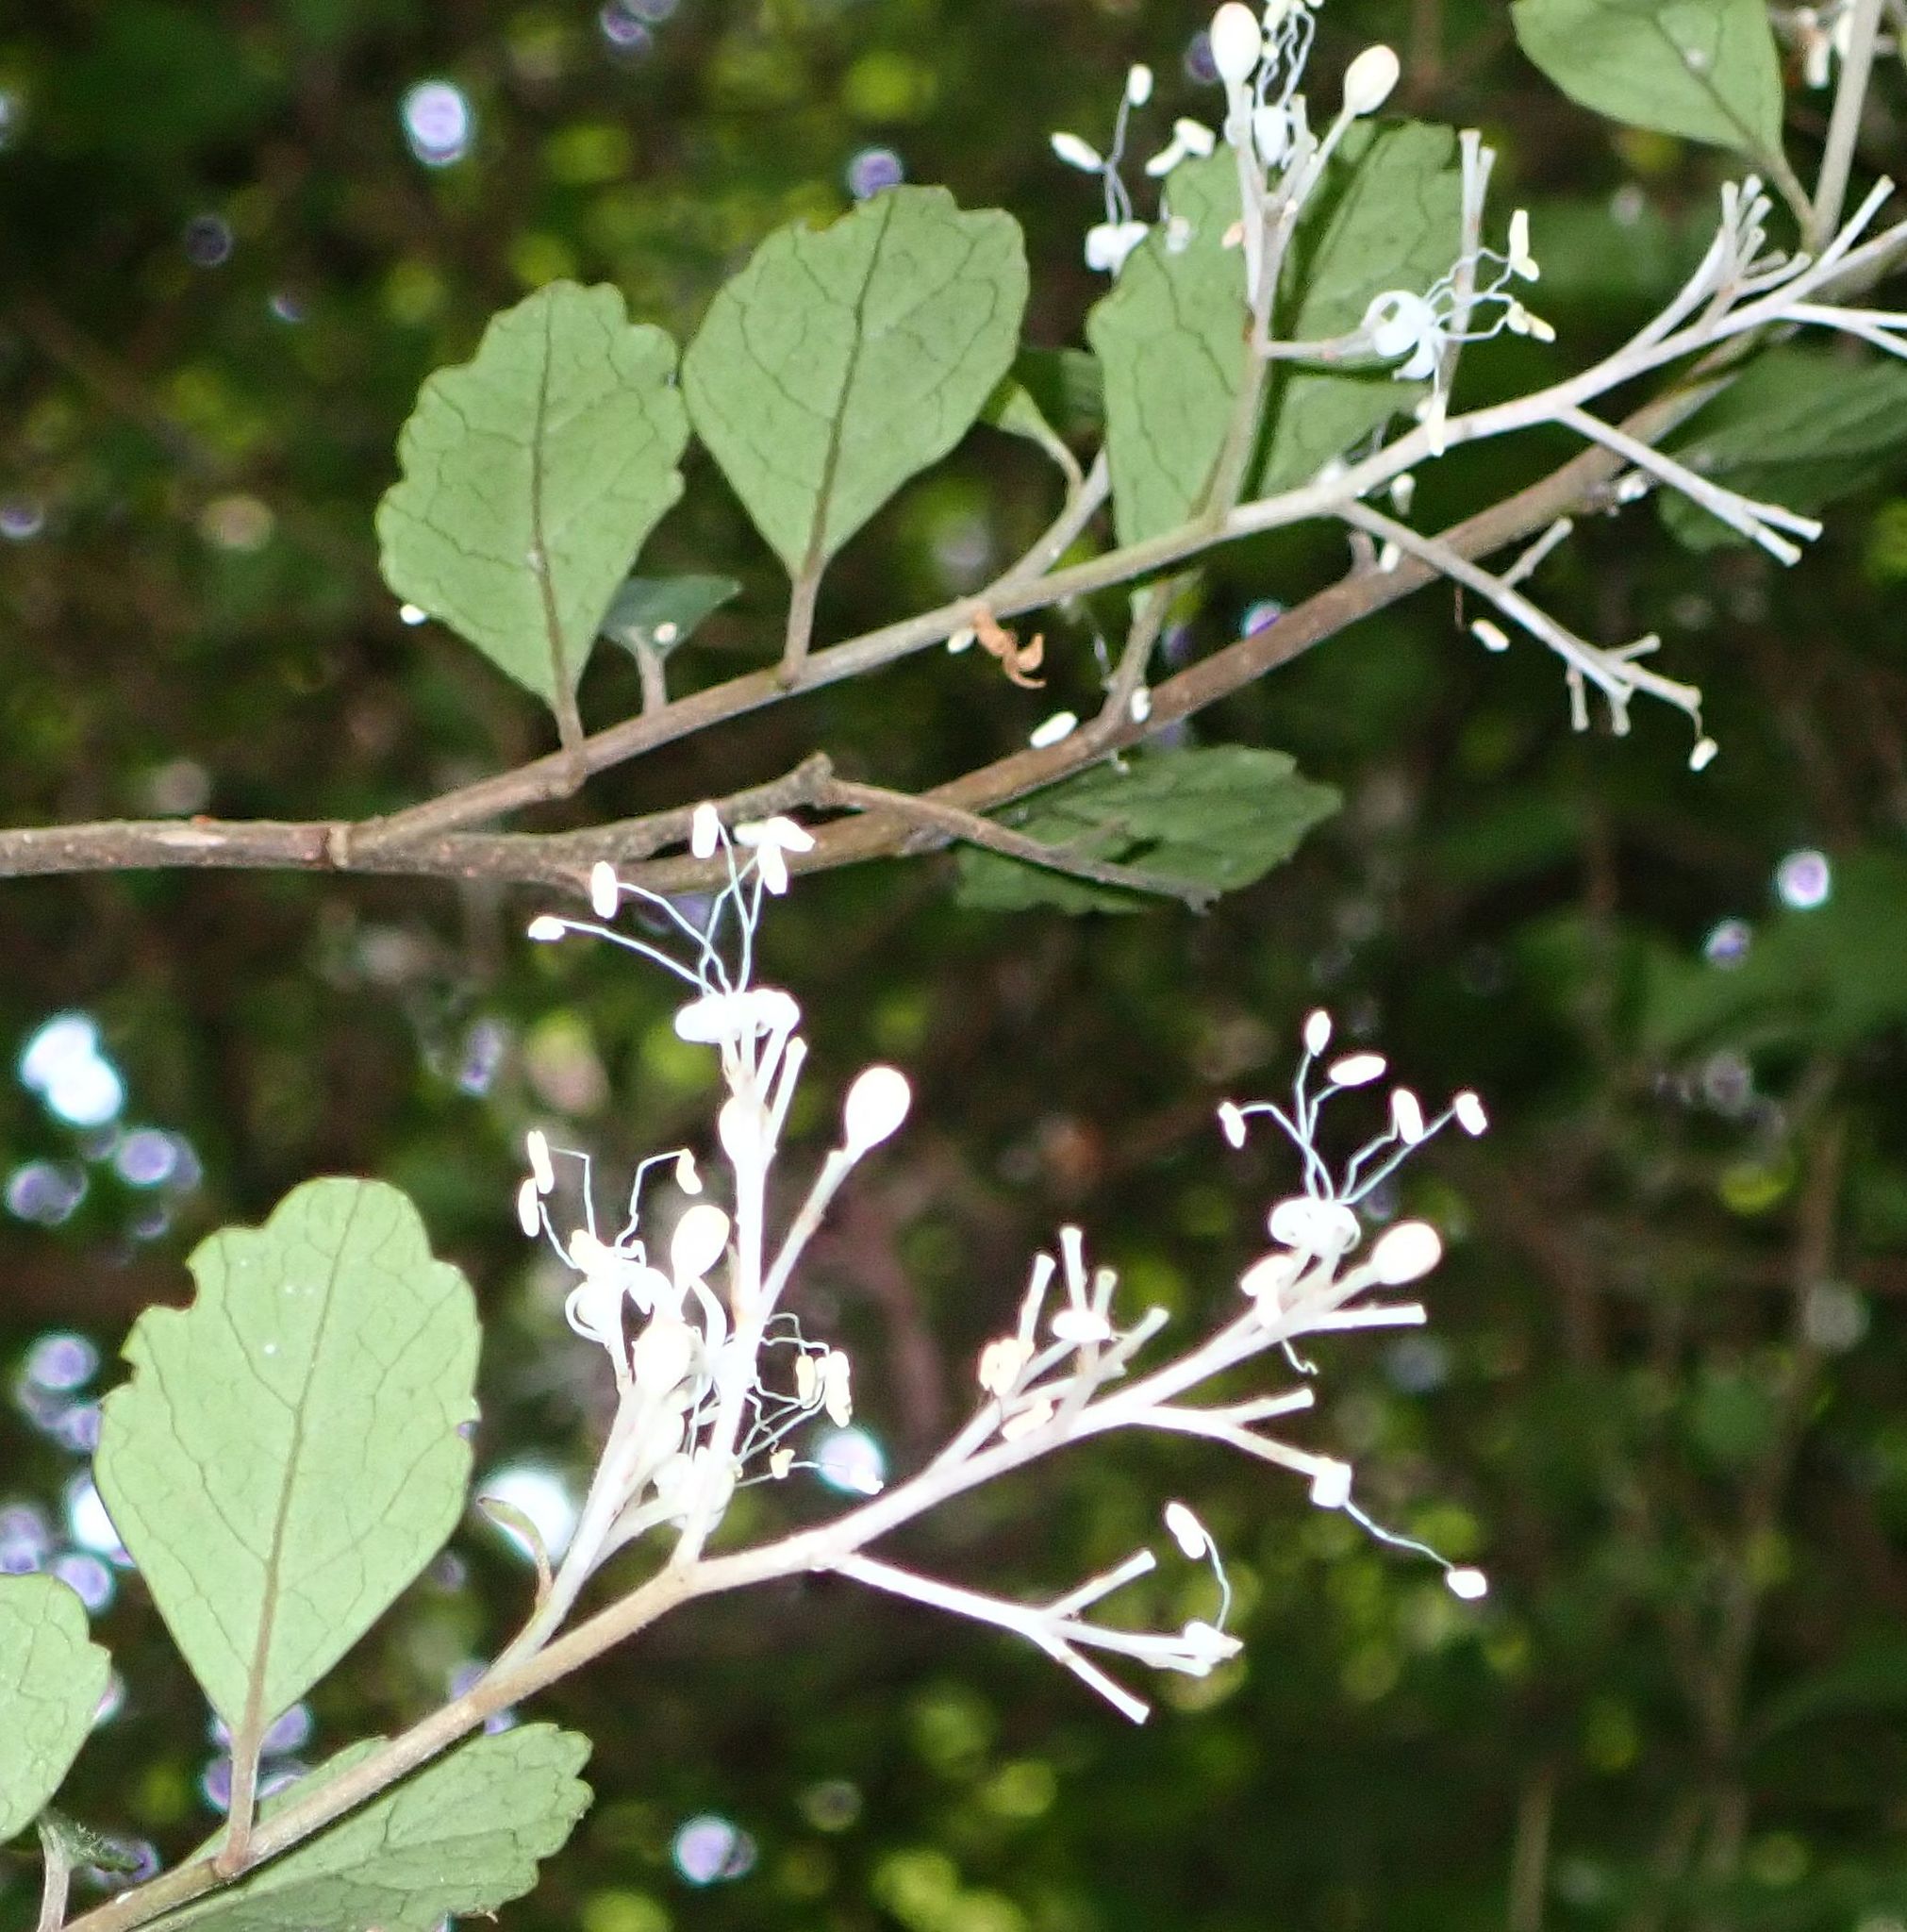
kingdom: Plantae
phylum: Tracheophyta
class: Magnoliopsida
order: Apiales
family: Pennantiaceae
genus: Pennantia
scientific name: Pennantia corymbosa
